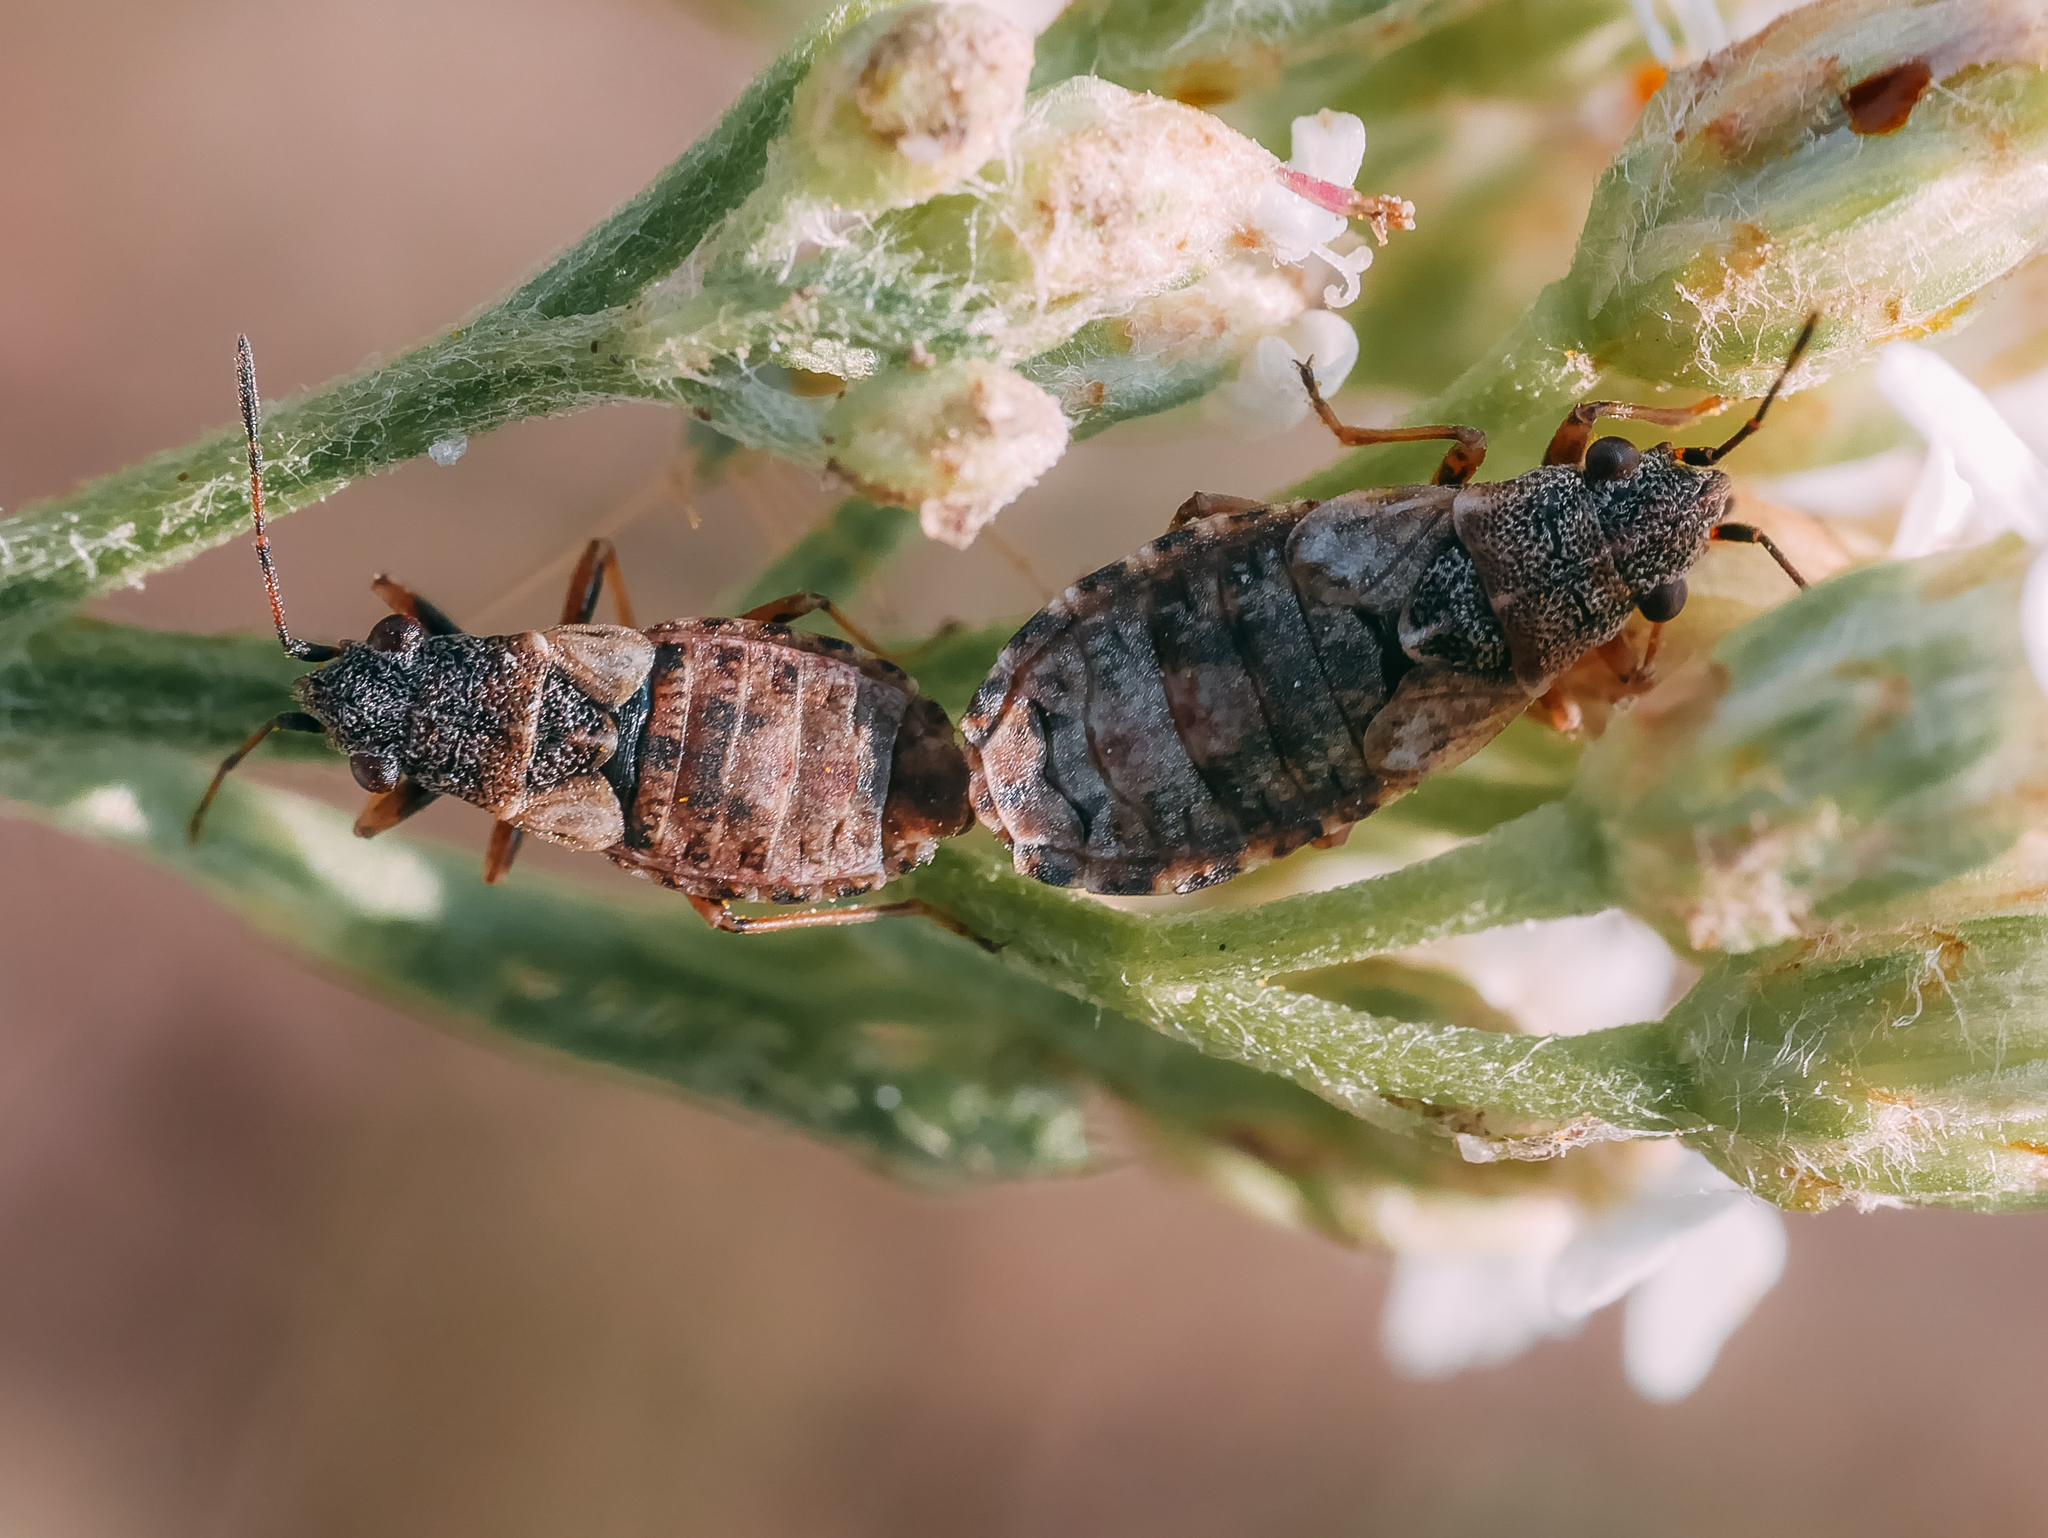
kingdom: Animalia
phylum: Arthropoda
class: Insecta
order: Hemiptera
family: Lygaeidae
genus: Nithecus
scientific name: Nithecus jacobaeae
